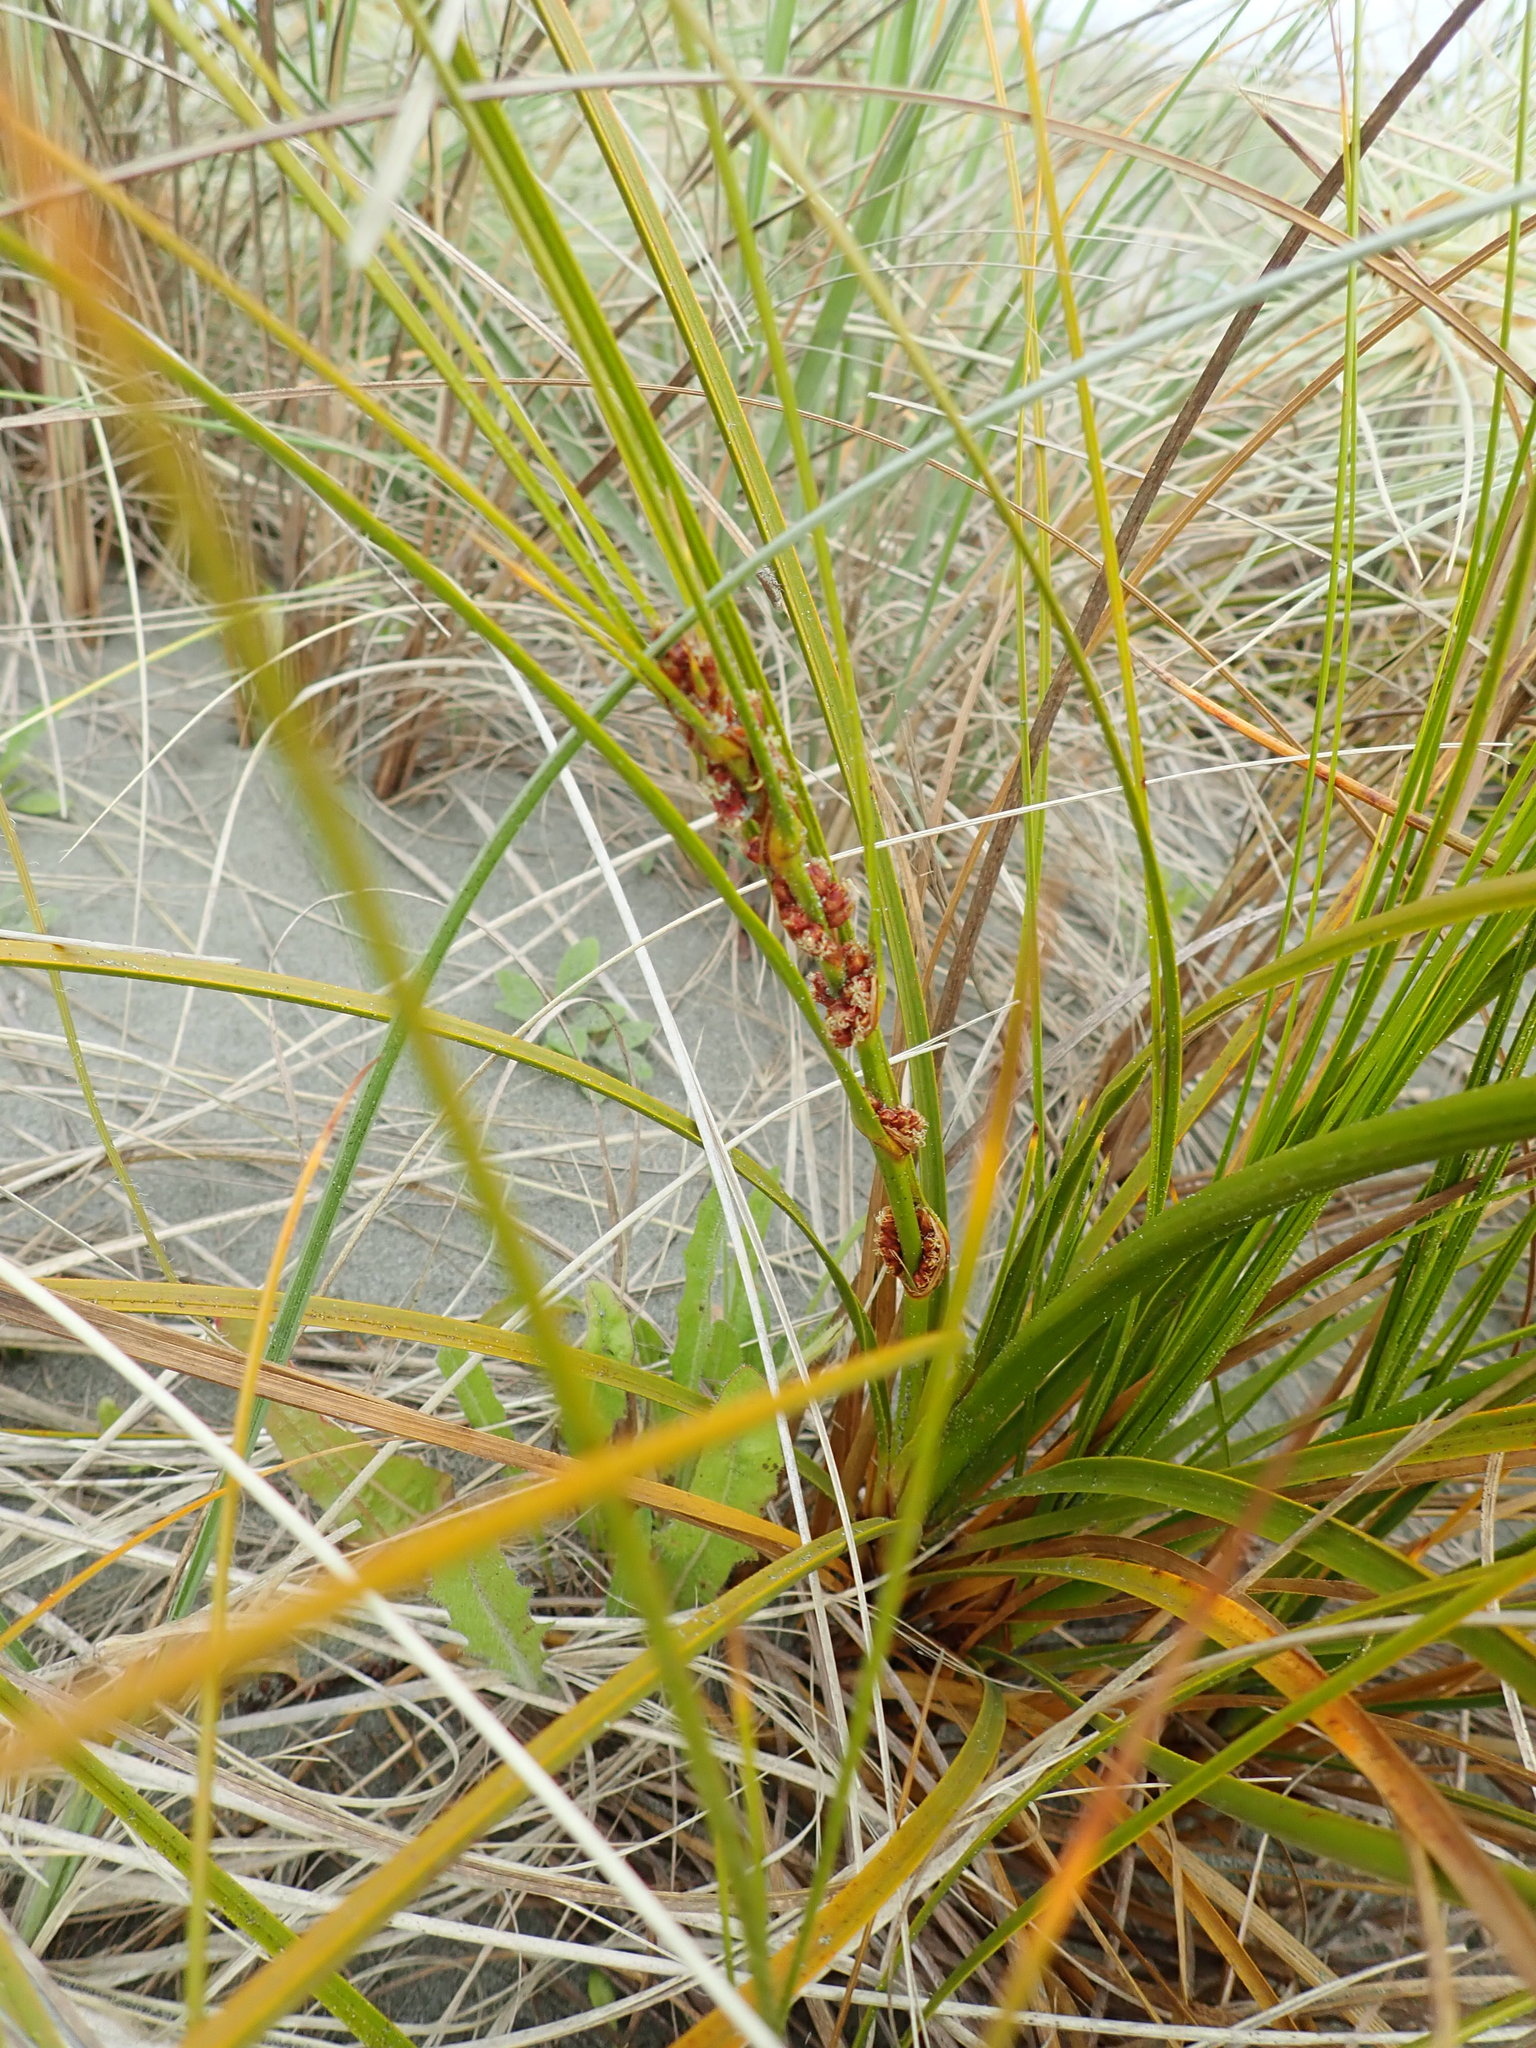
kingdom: Plantae
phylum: Tracheophyta
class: Liliopsida
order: Poales
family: Cyperaceae
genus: Ficinia
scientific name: Ficinia spiralis
